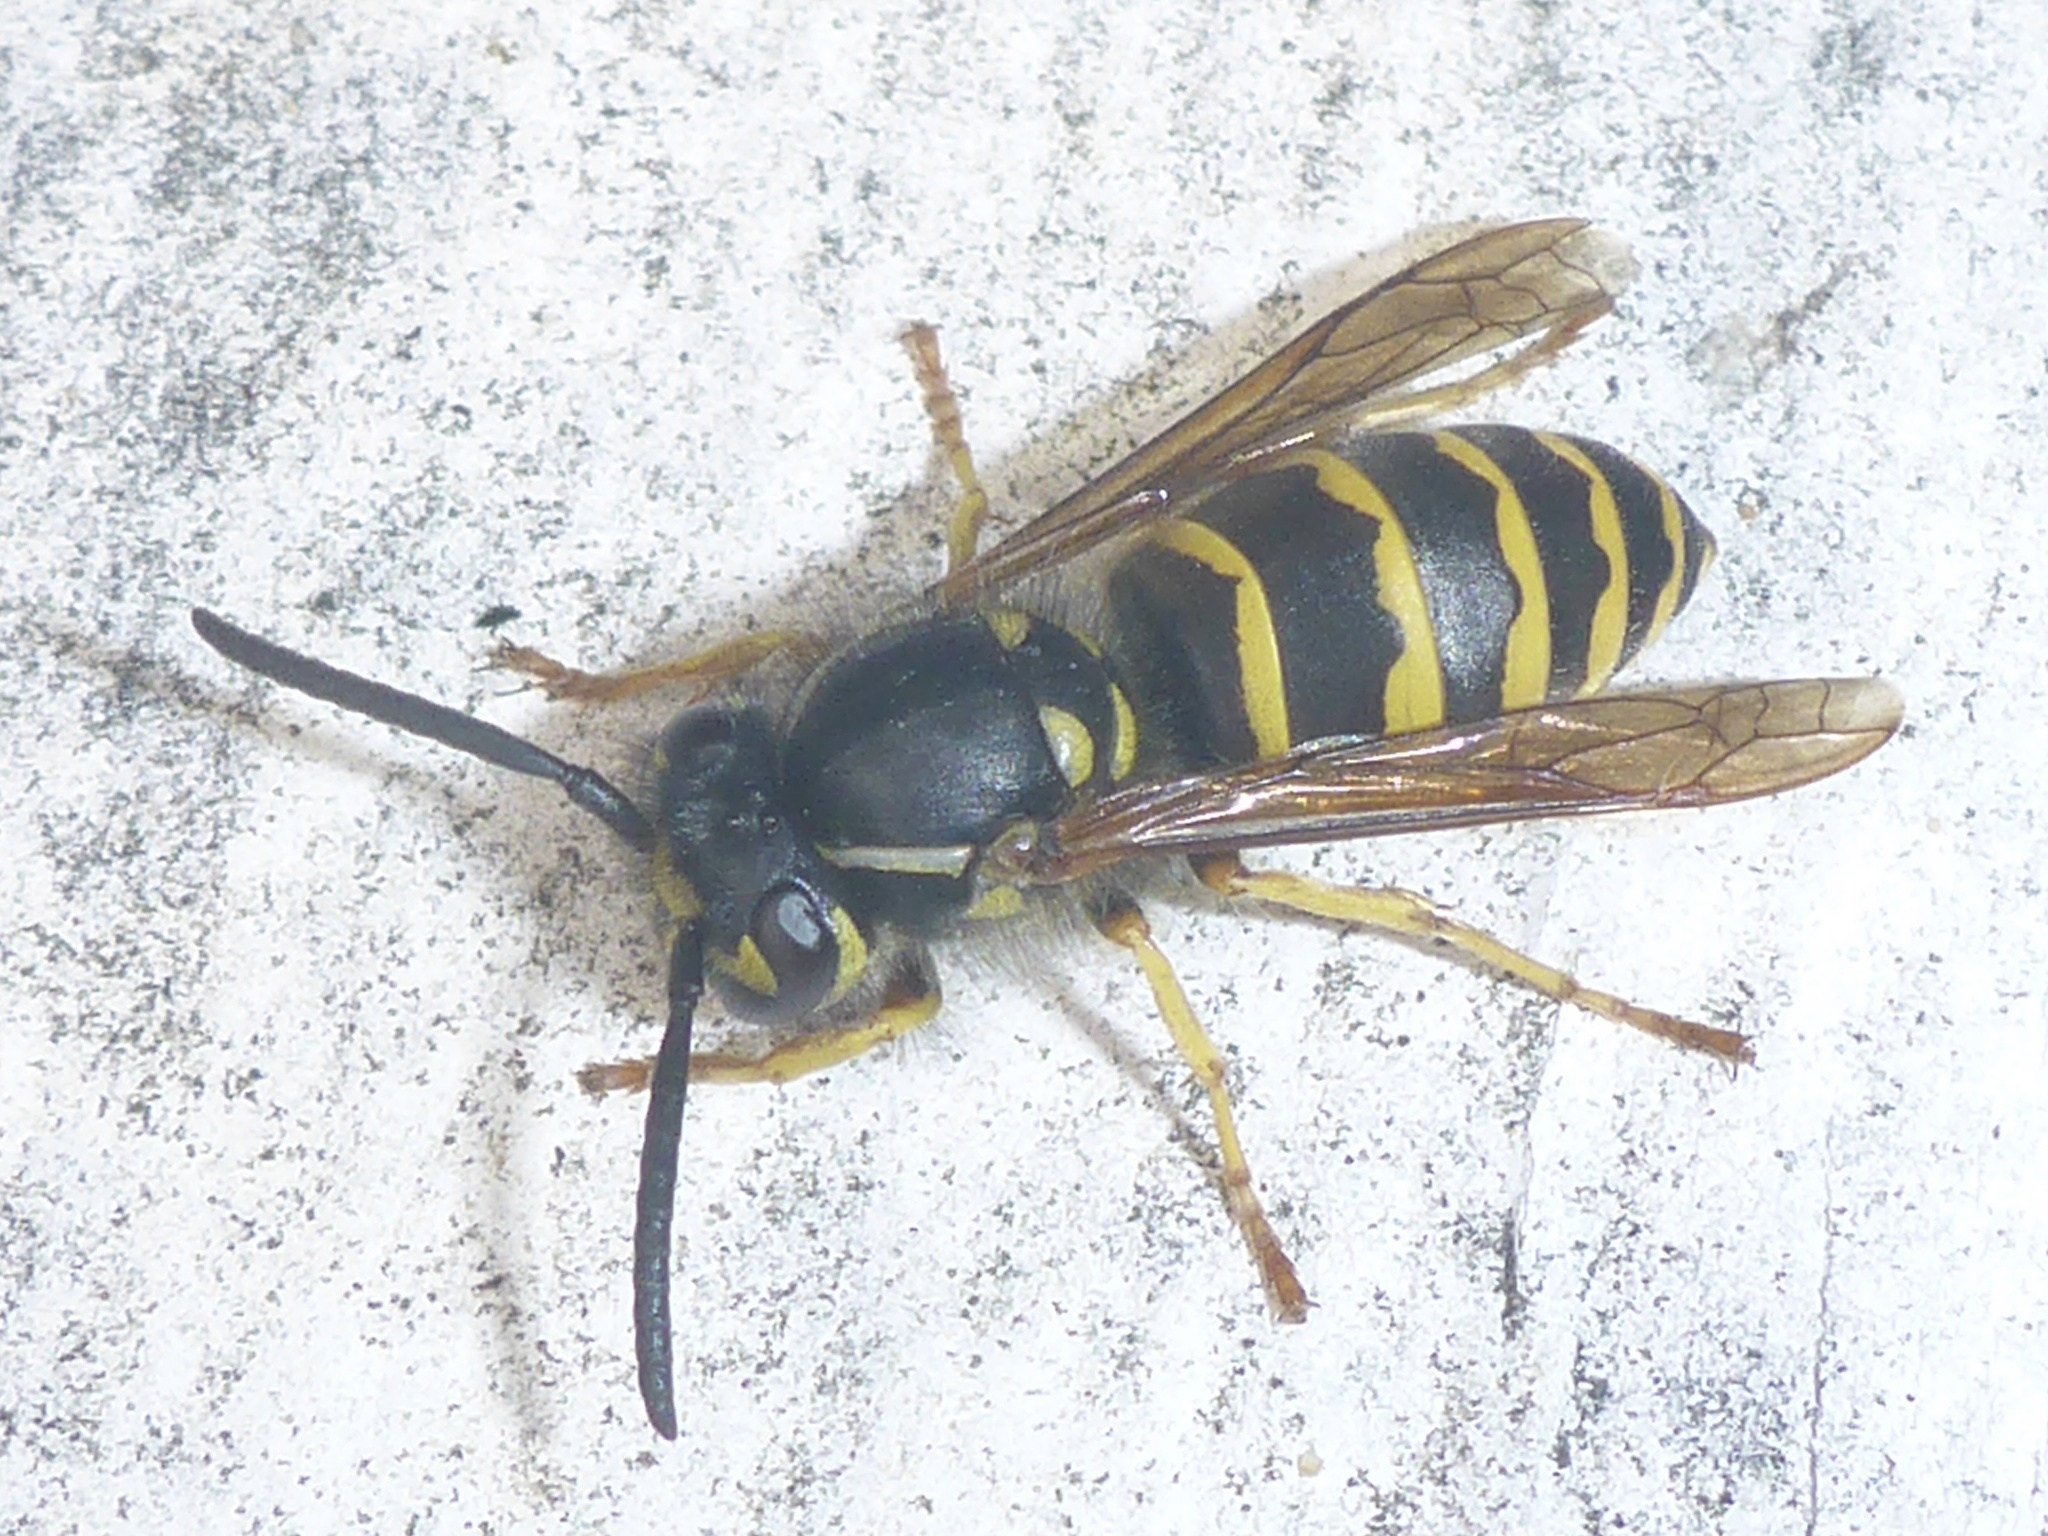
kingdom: Animalia
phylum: Arthropoda
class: Insecta
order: Hymenoptera
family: Vespidae
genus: Vespula
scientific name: Vespula alascensis
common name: Alaska yellowjacket
